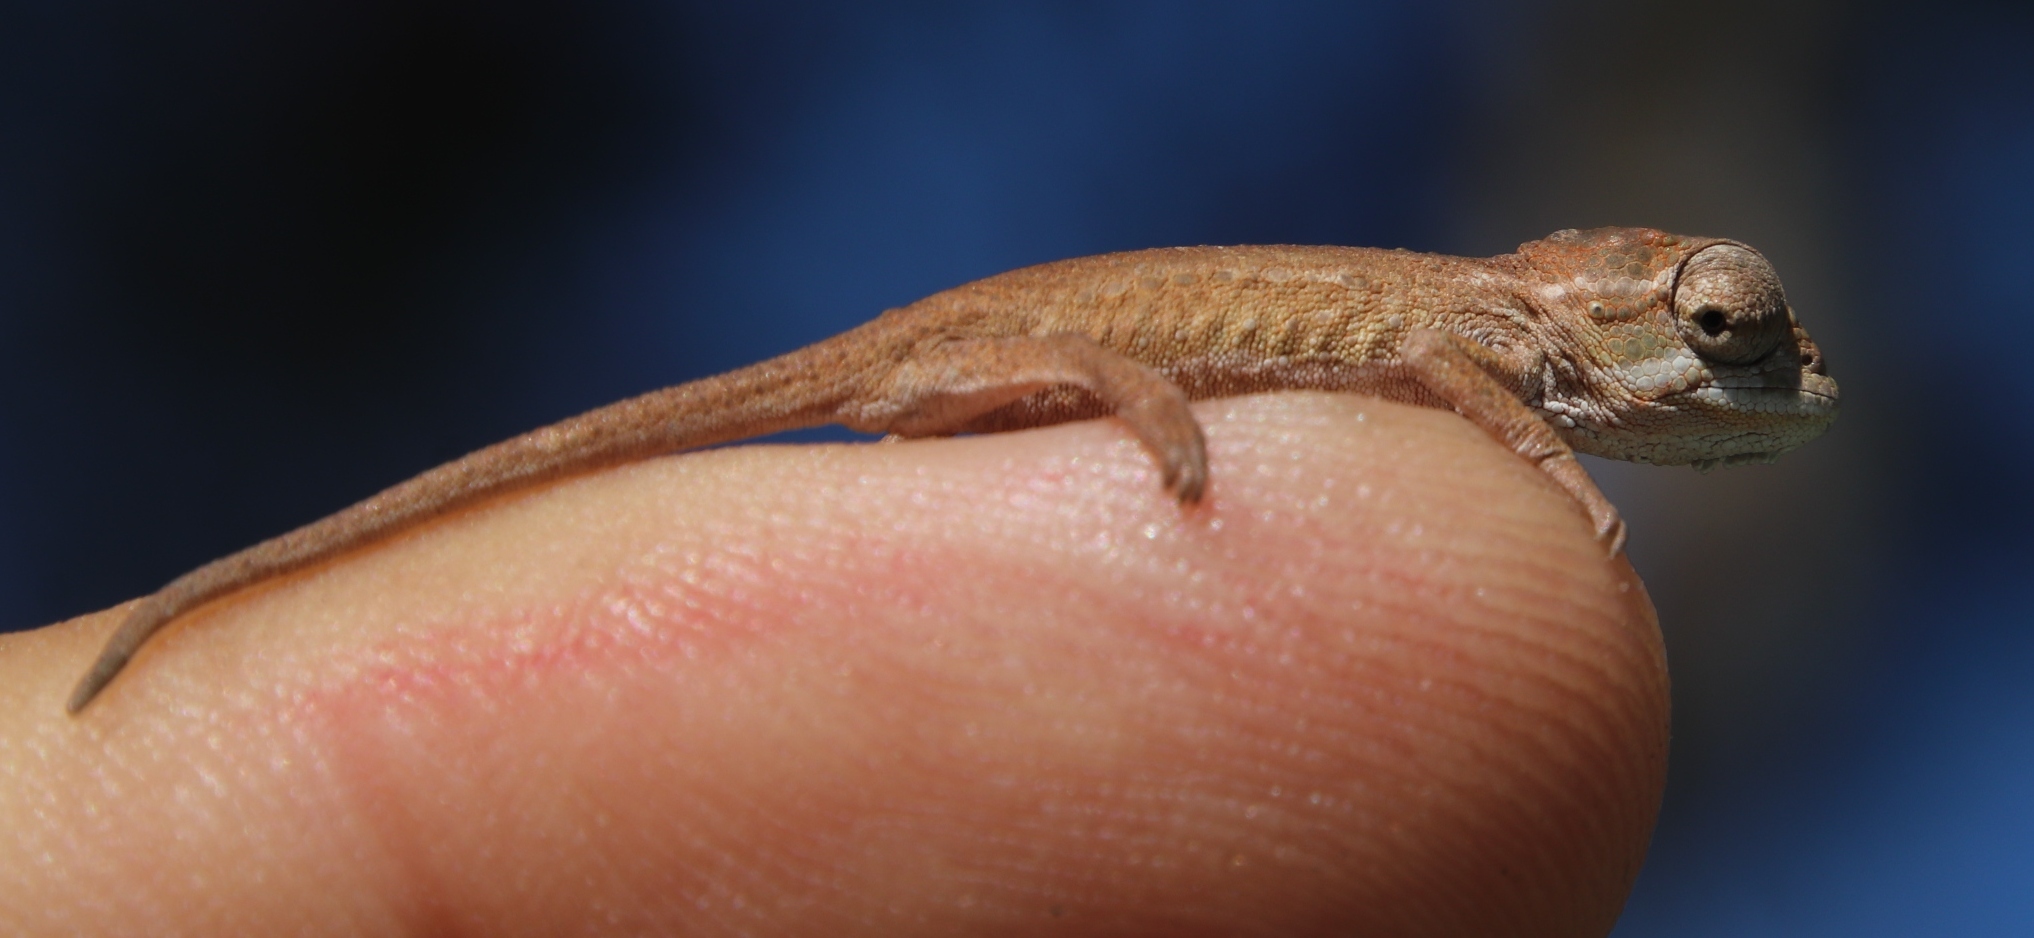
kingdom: Animalia
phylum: Chordata
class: Squamata
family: Chamaeleonidae
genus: Bradypodion
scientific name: Bradypodion pumilum
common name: Cape dwarf chameleon
